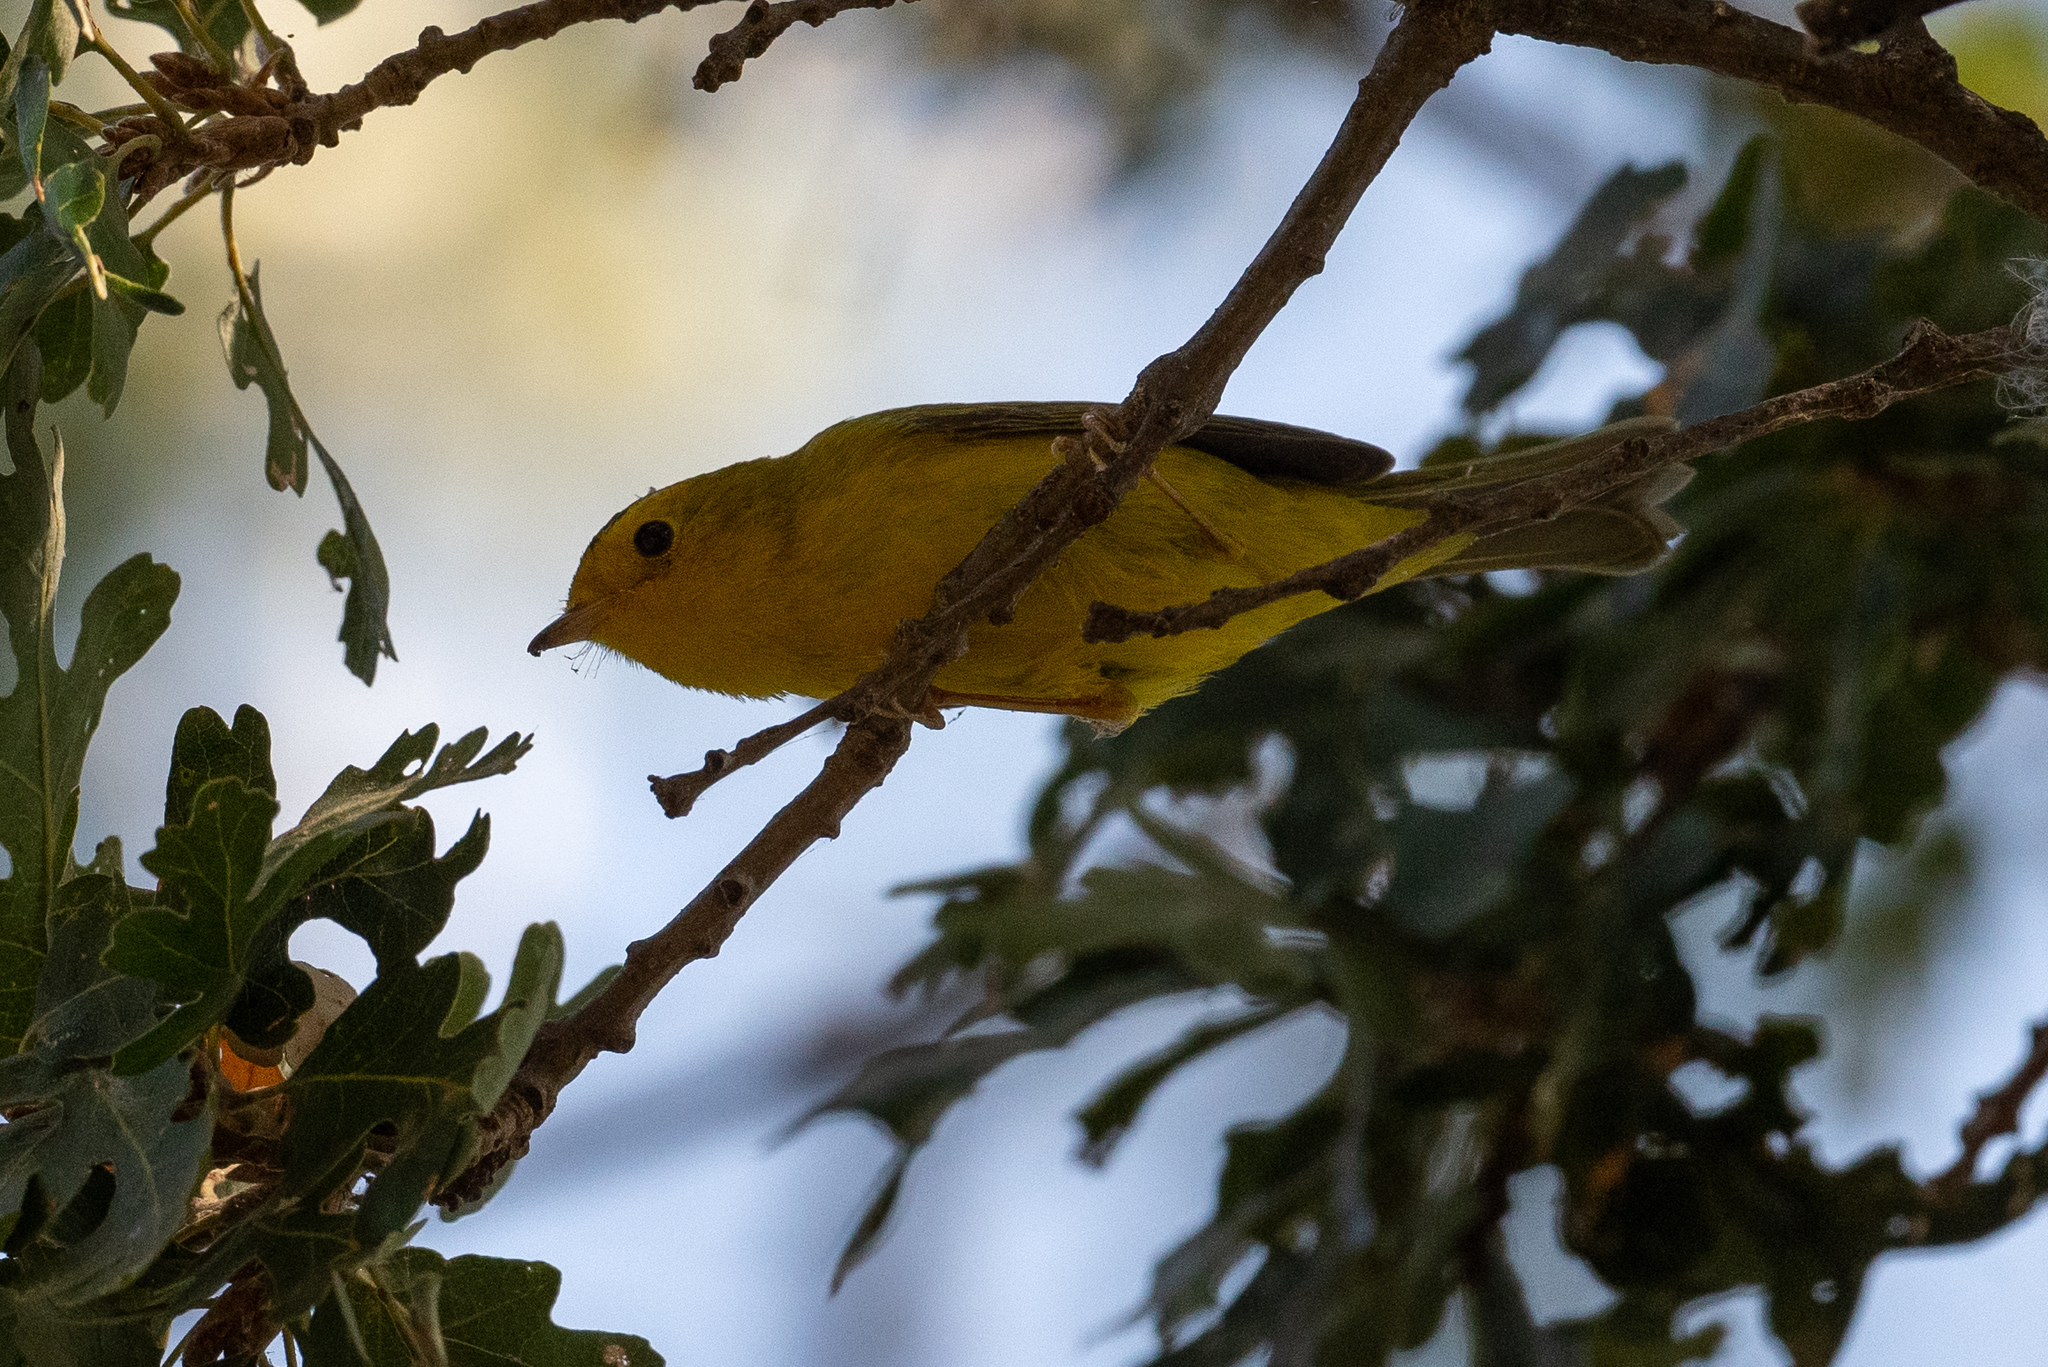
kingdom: Animalia
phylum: Chordata
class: Aves
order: Passeriformes
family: Parulidae
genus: Cardellina
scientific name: Cardellina pusilla
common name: Wilson's warbler
